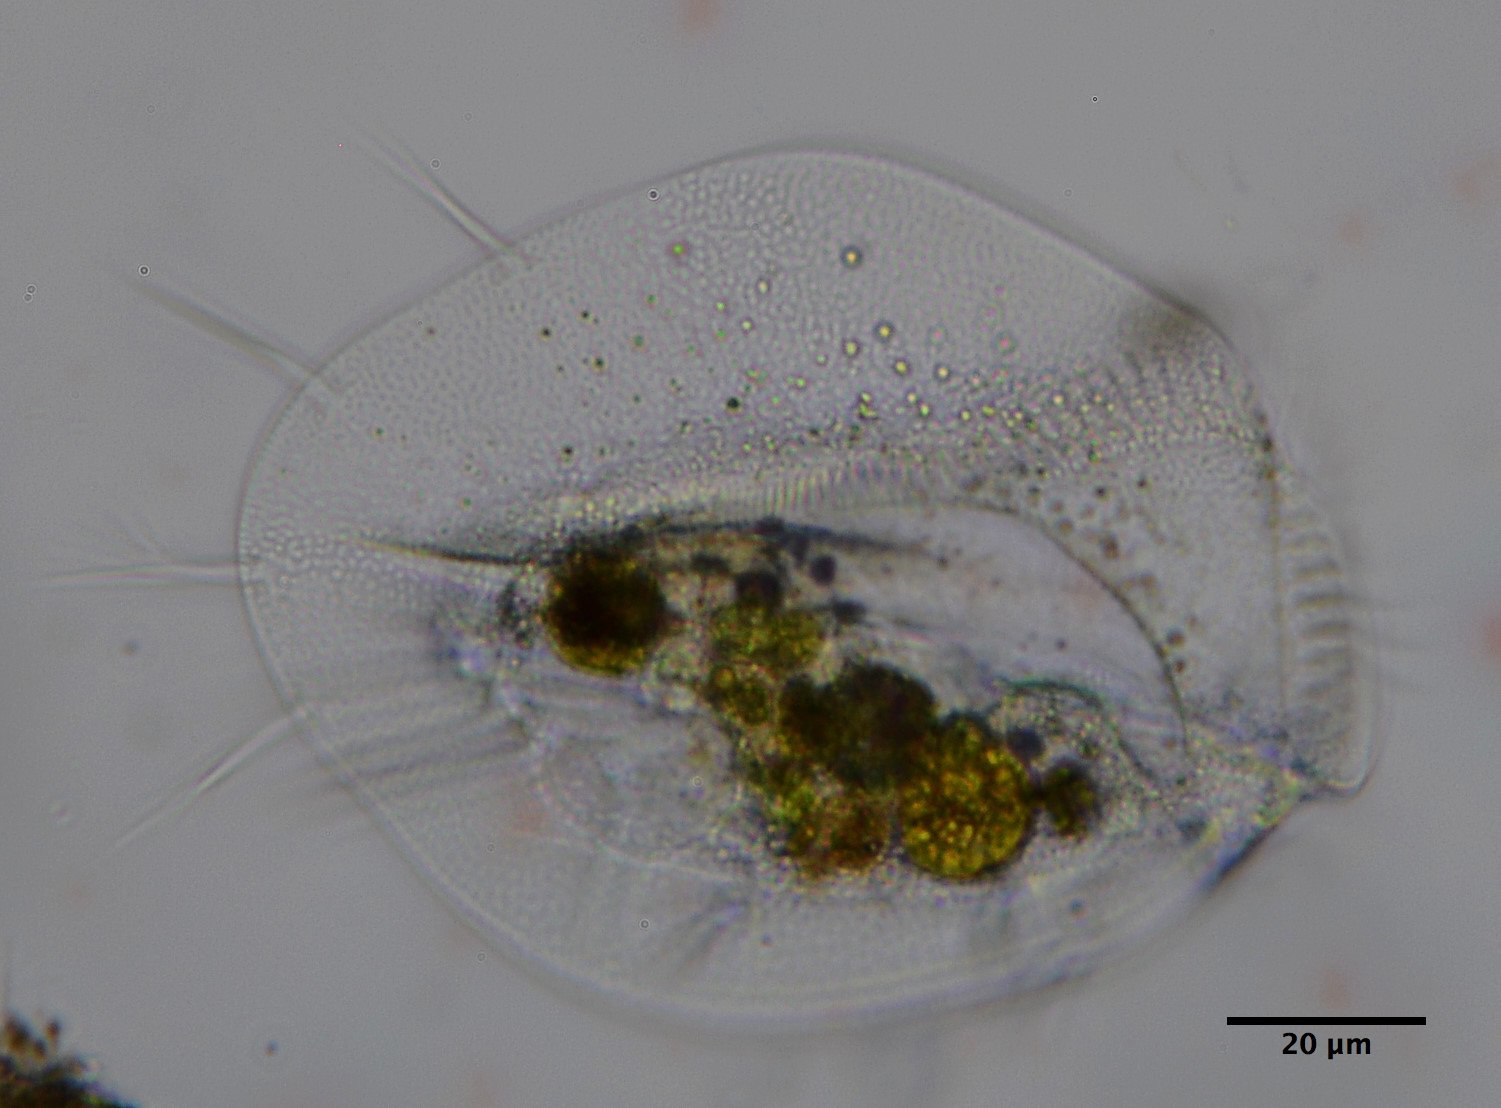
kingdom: Chromista
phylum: Ciliophora
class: Hypotrichea
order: Euplotida
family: Euplotidae
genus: Euplotes
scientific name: Euplotes
